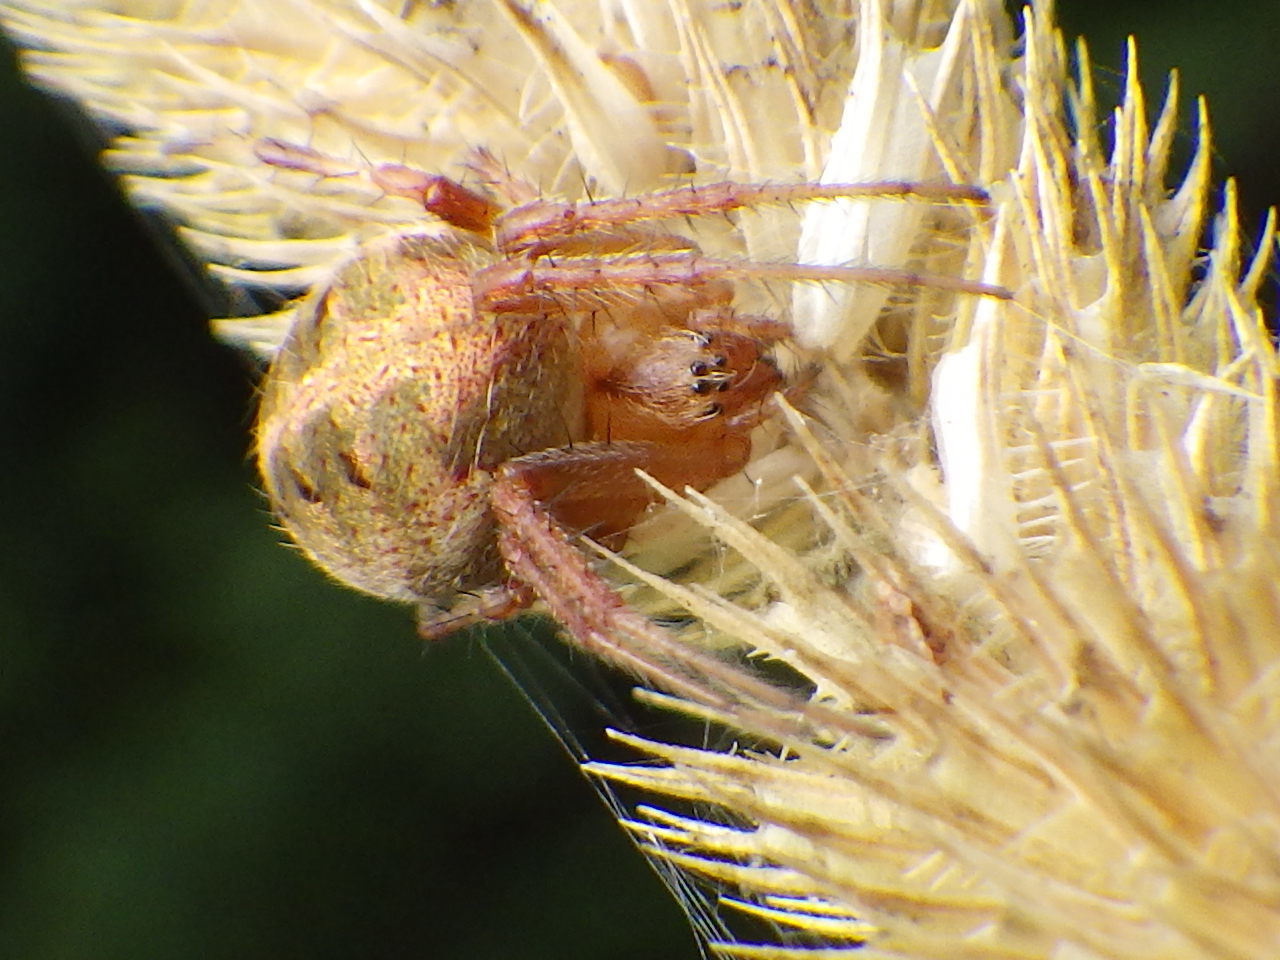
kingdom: Animalia
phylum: Arthropoda
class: Arachnida
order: Araneae
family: Araneidae
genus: Neoscona
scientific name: Neoscona arabesca
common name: Orb weavers
